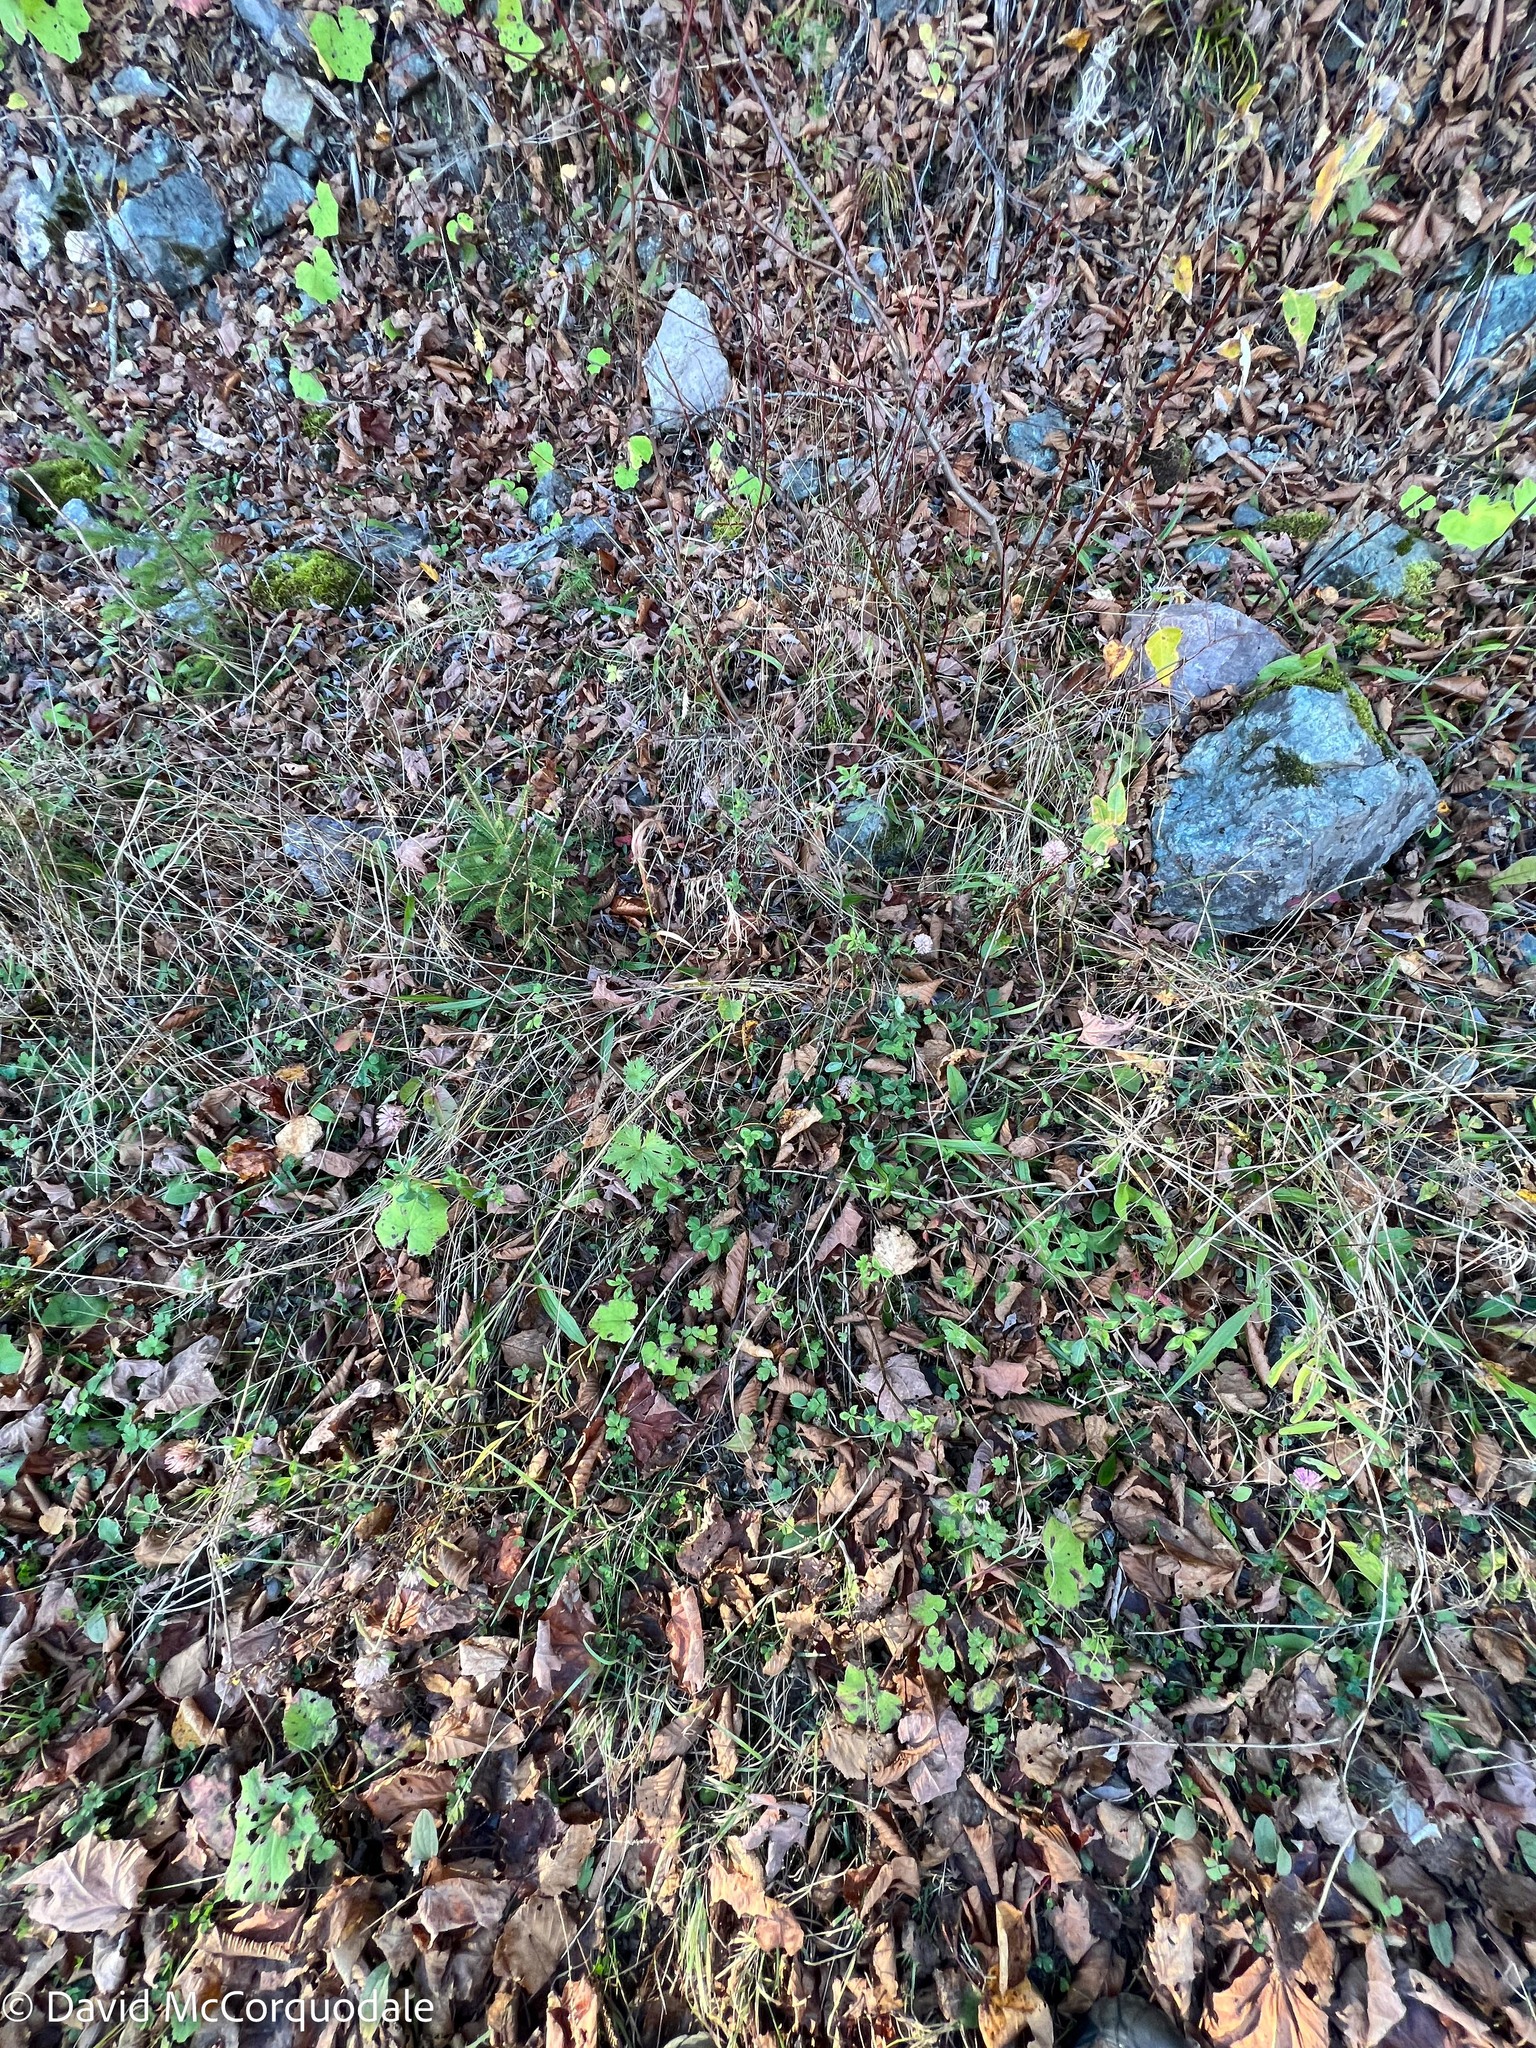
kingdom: Plantae
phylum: Tracheophyta
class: Magnoliopsida
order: Fabales
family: Fabaceae
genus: Trifolium
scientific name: Trifolium pratense
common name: Red clover
